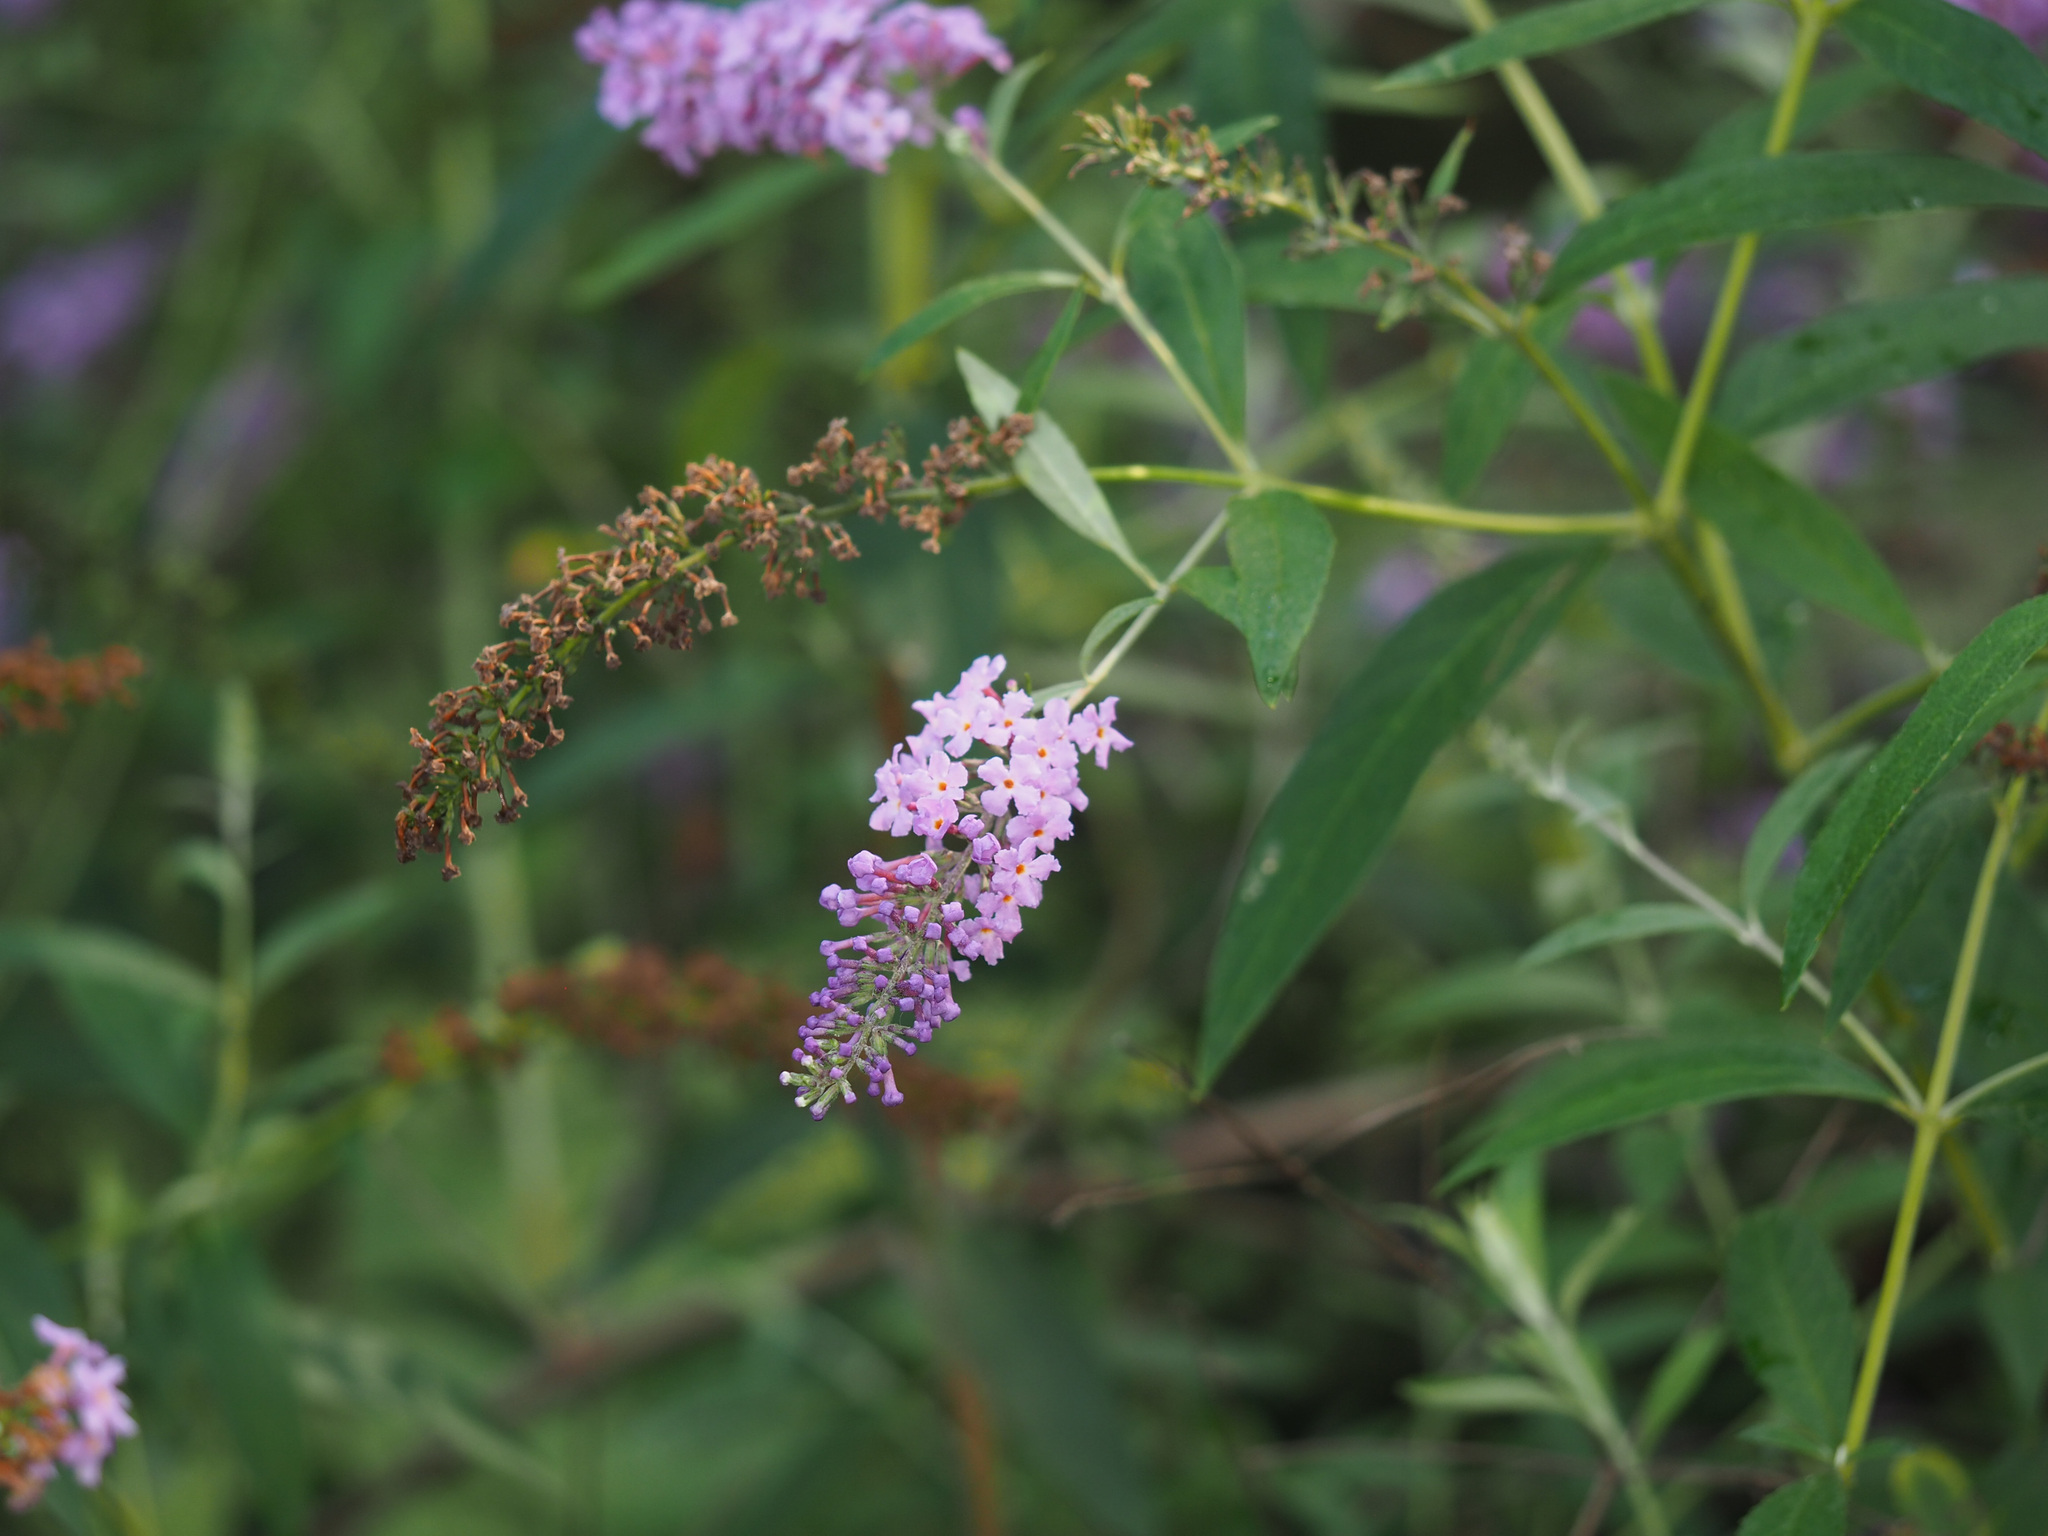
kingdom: Plantae
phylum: Tracheophyta
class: Magnoliopsida
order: Lamiales
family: Scrophulariaceae
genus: Buddleja
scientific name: Buddleja davidii
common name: Butterfly-bush
